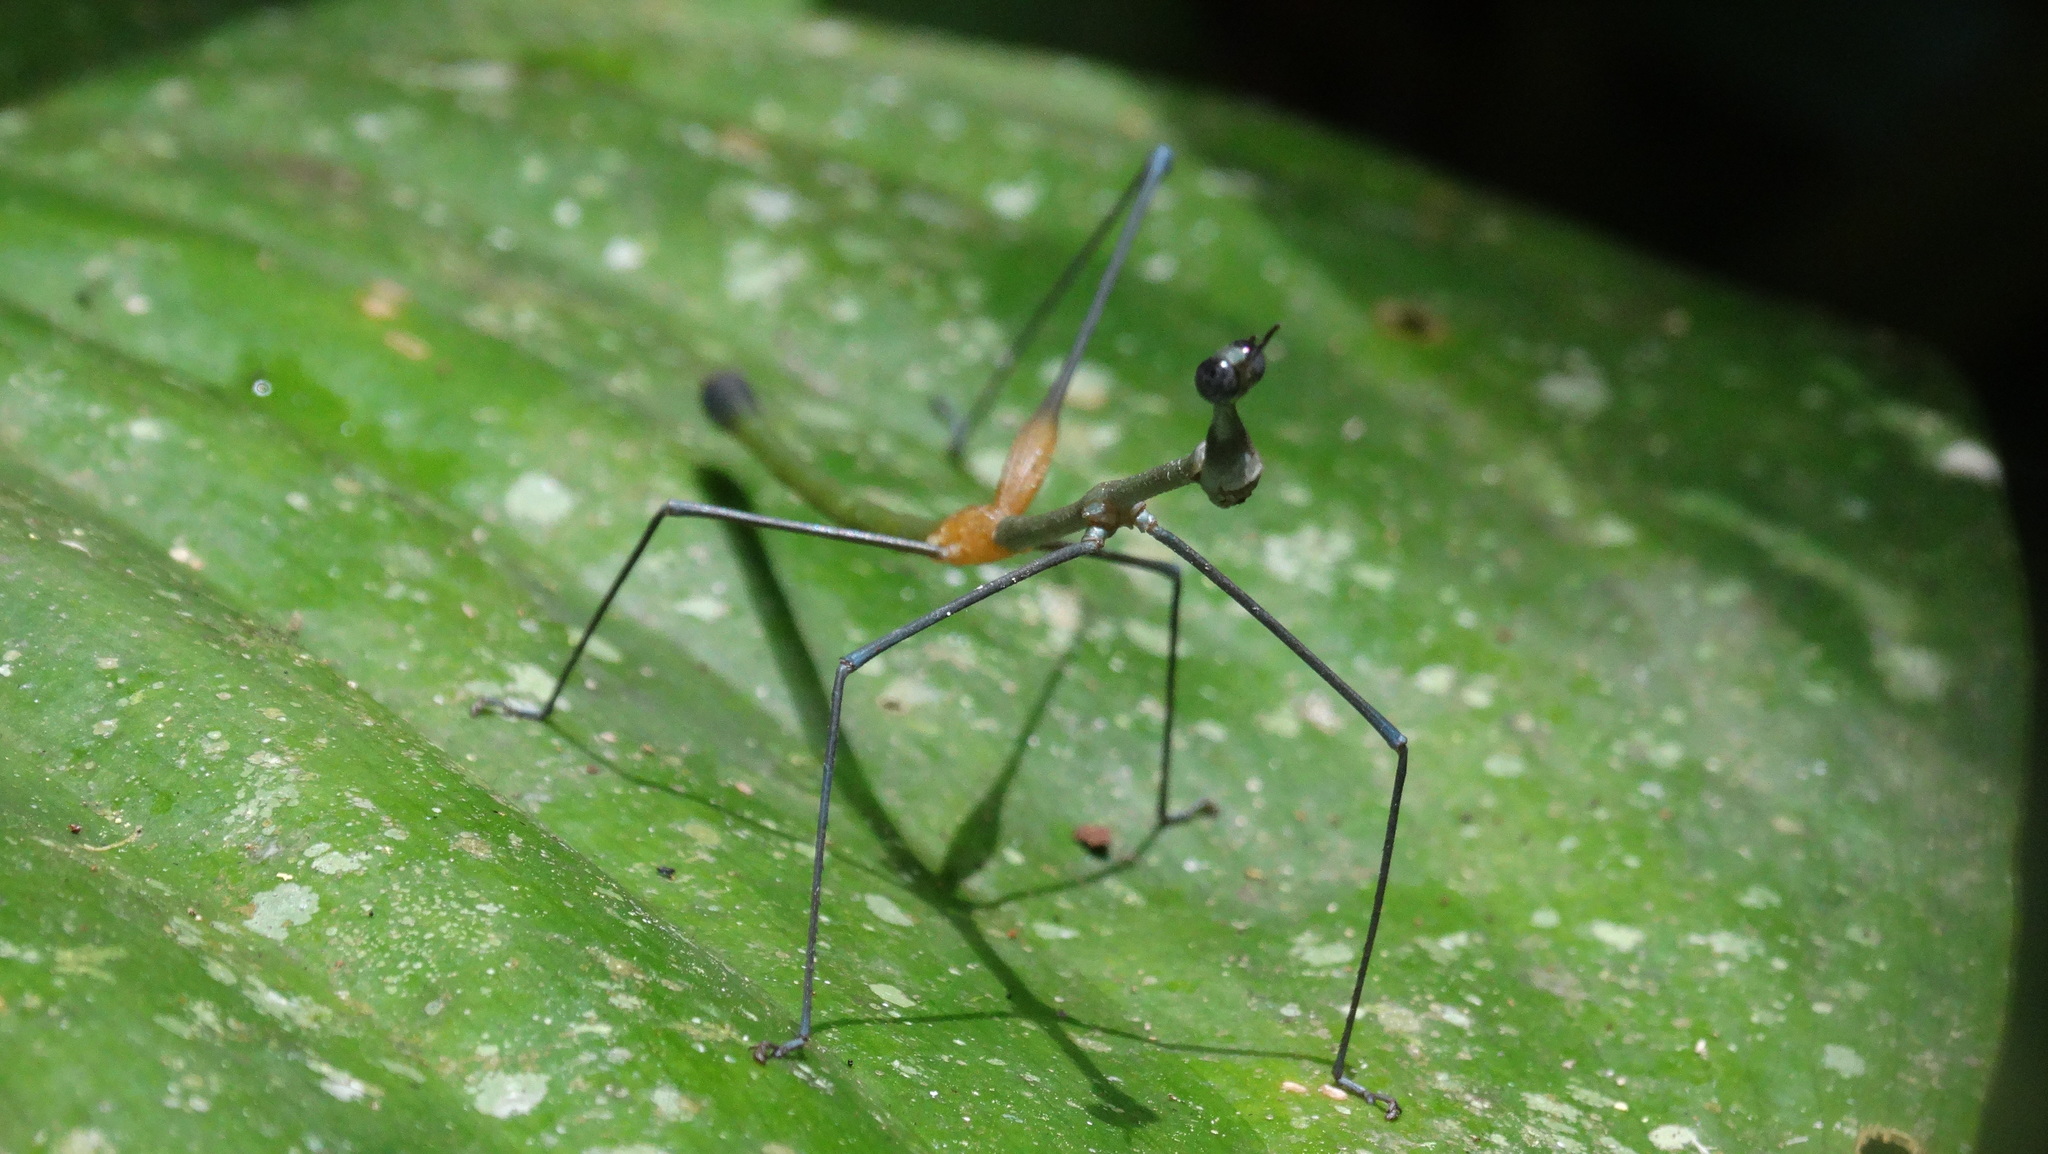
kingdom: Animalia
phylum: Arthropoda
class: Insecta
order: Orthoptera
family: Proscopiidae
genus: Apioscelis
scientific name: Apioscelis tuberculata
